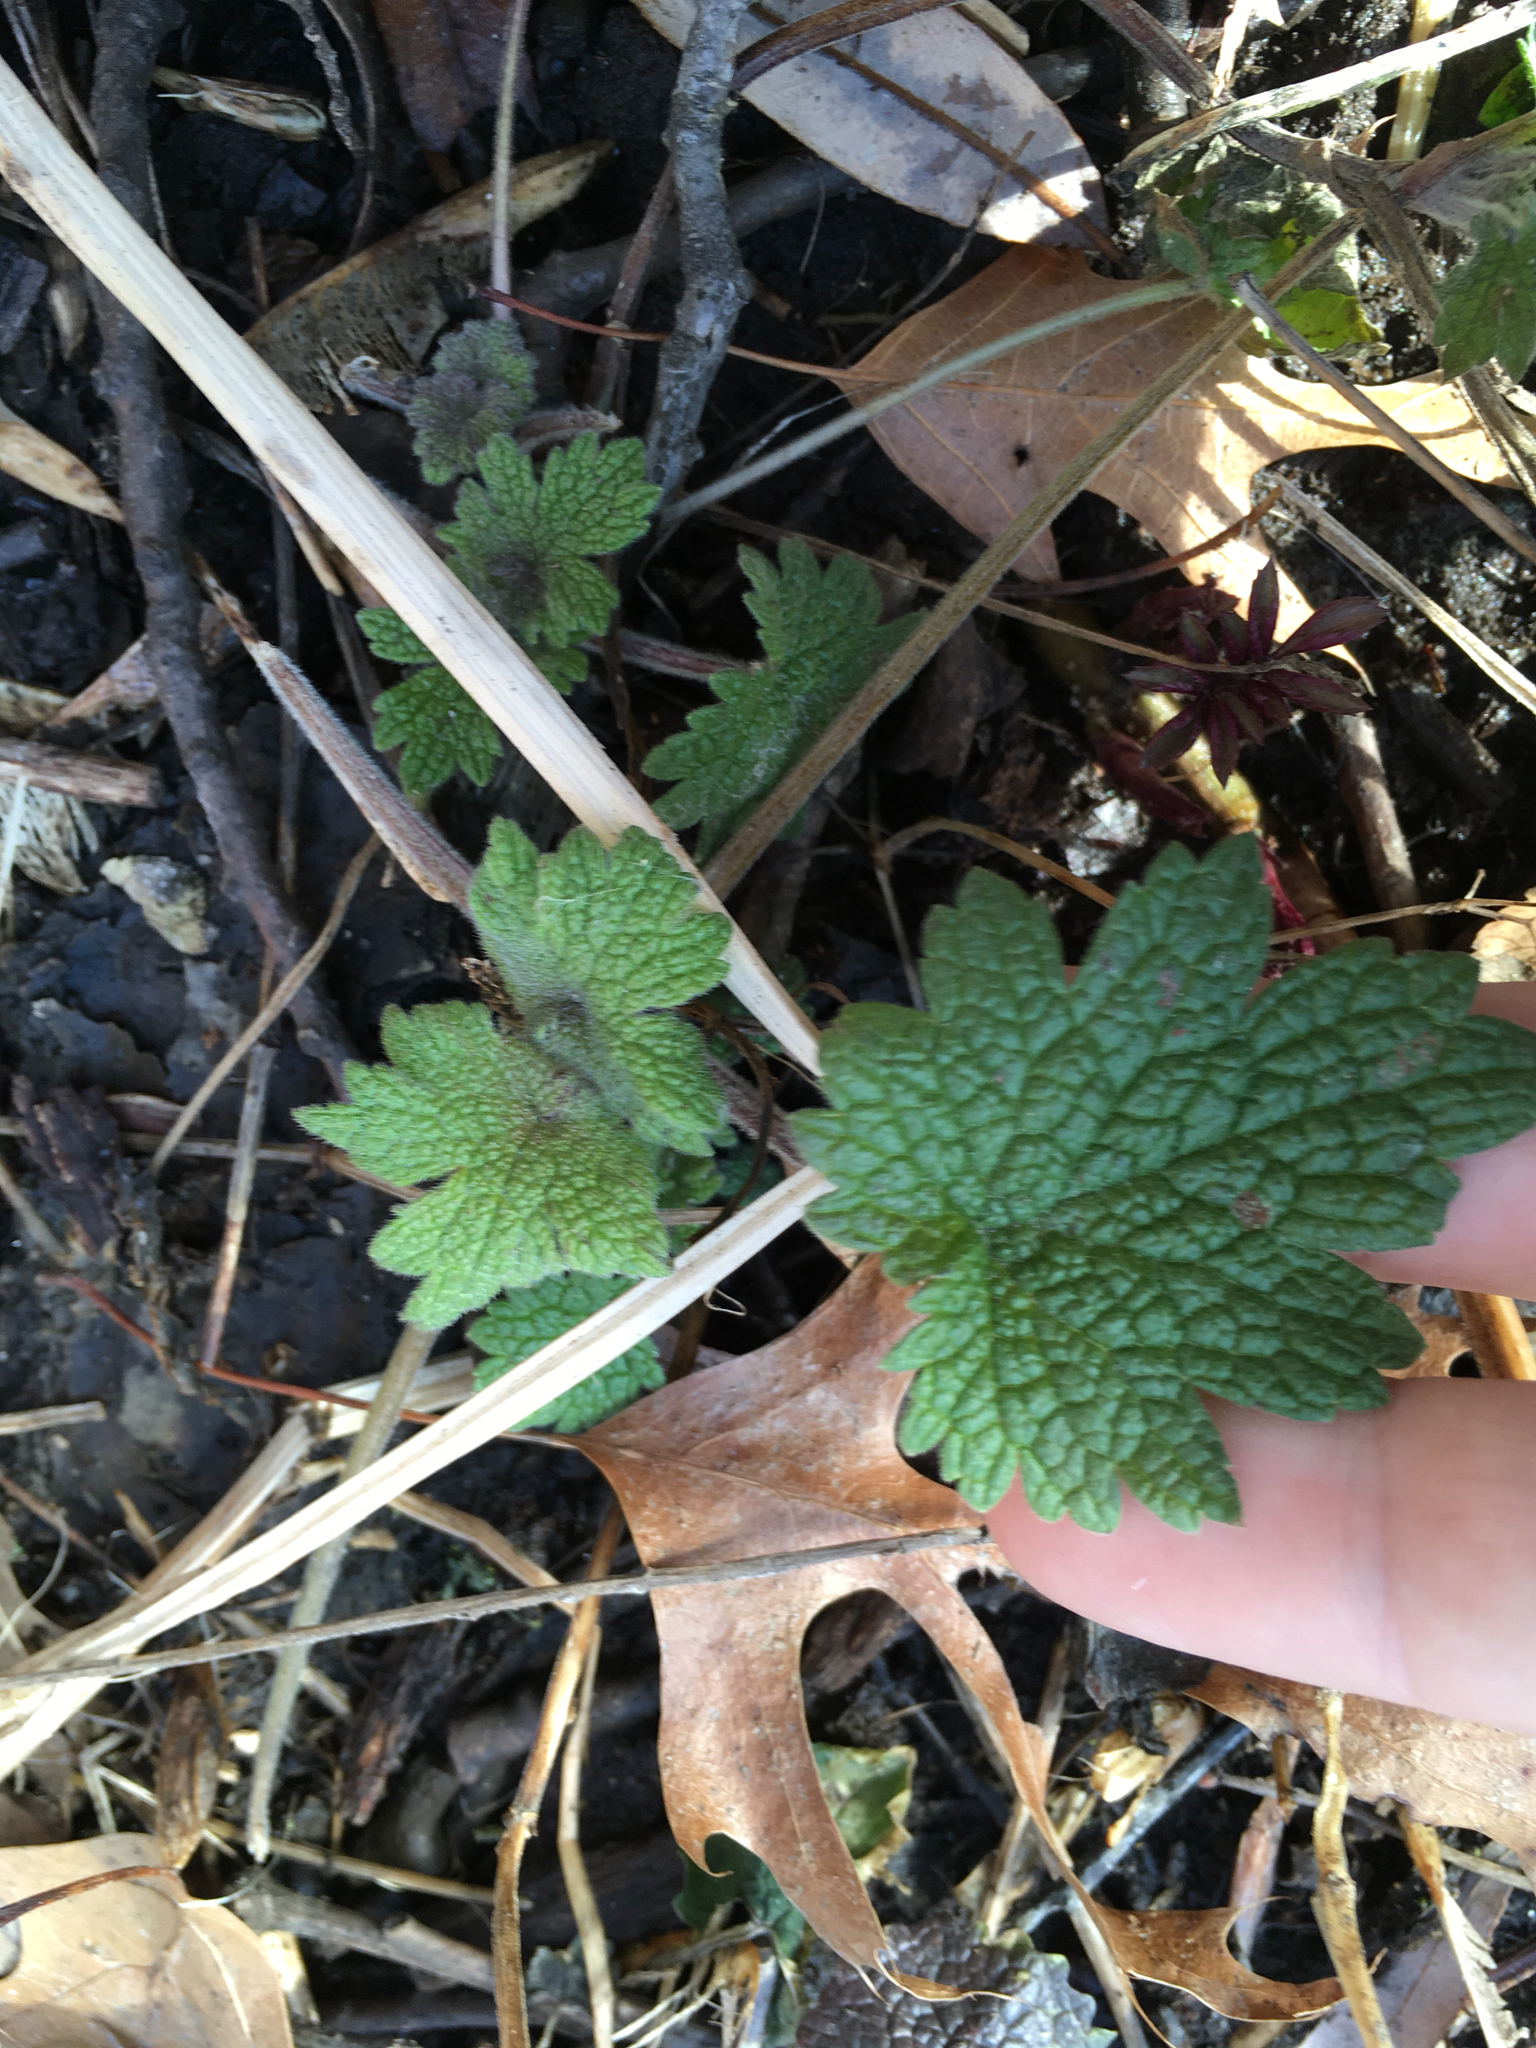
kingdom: Plantae
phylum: Tracheophyta
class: Magnoliopsida
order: Lamiales
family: Lamiaceae
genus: Leonurus
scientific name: Leonurus cardiaca
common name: Motherwort
